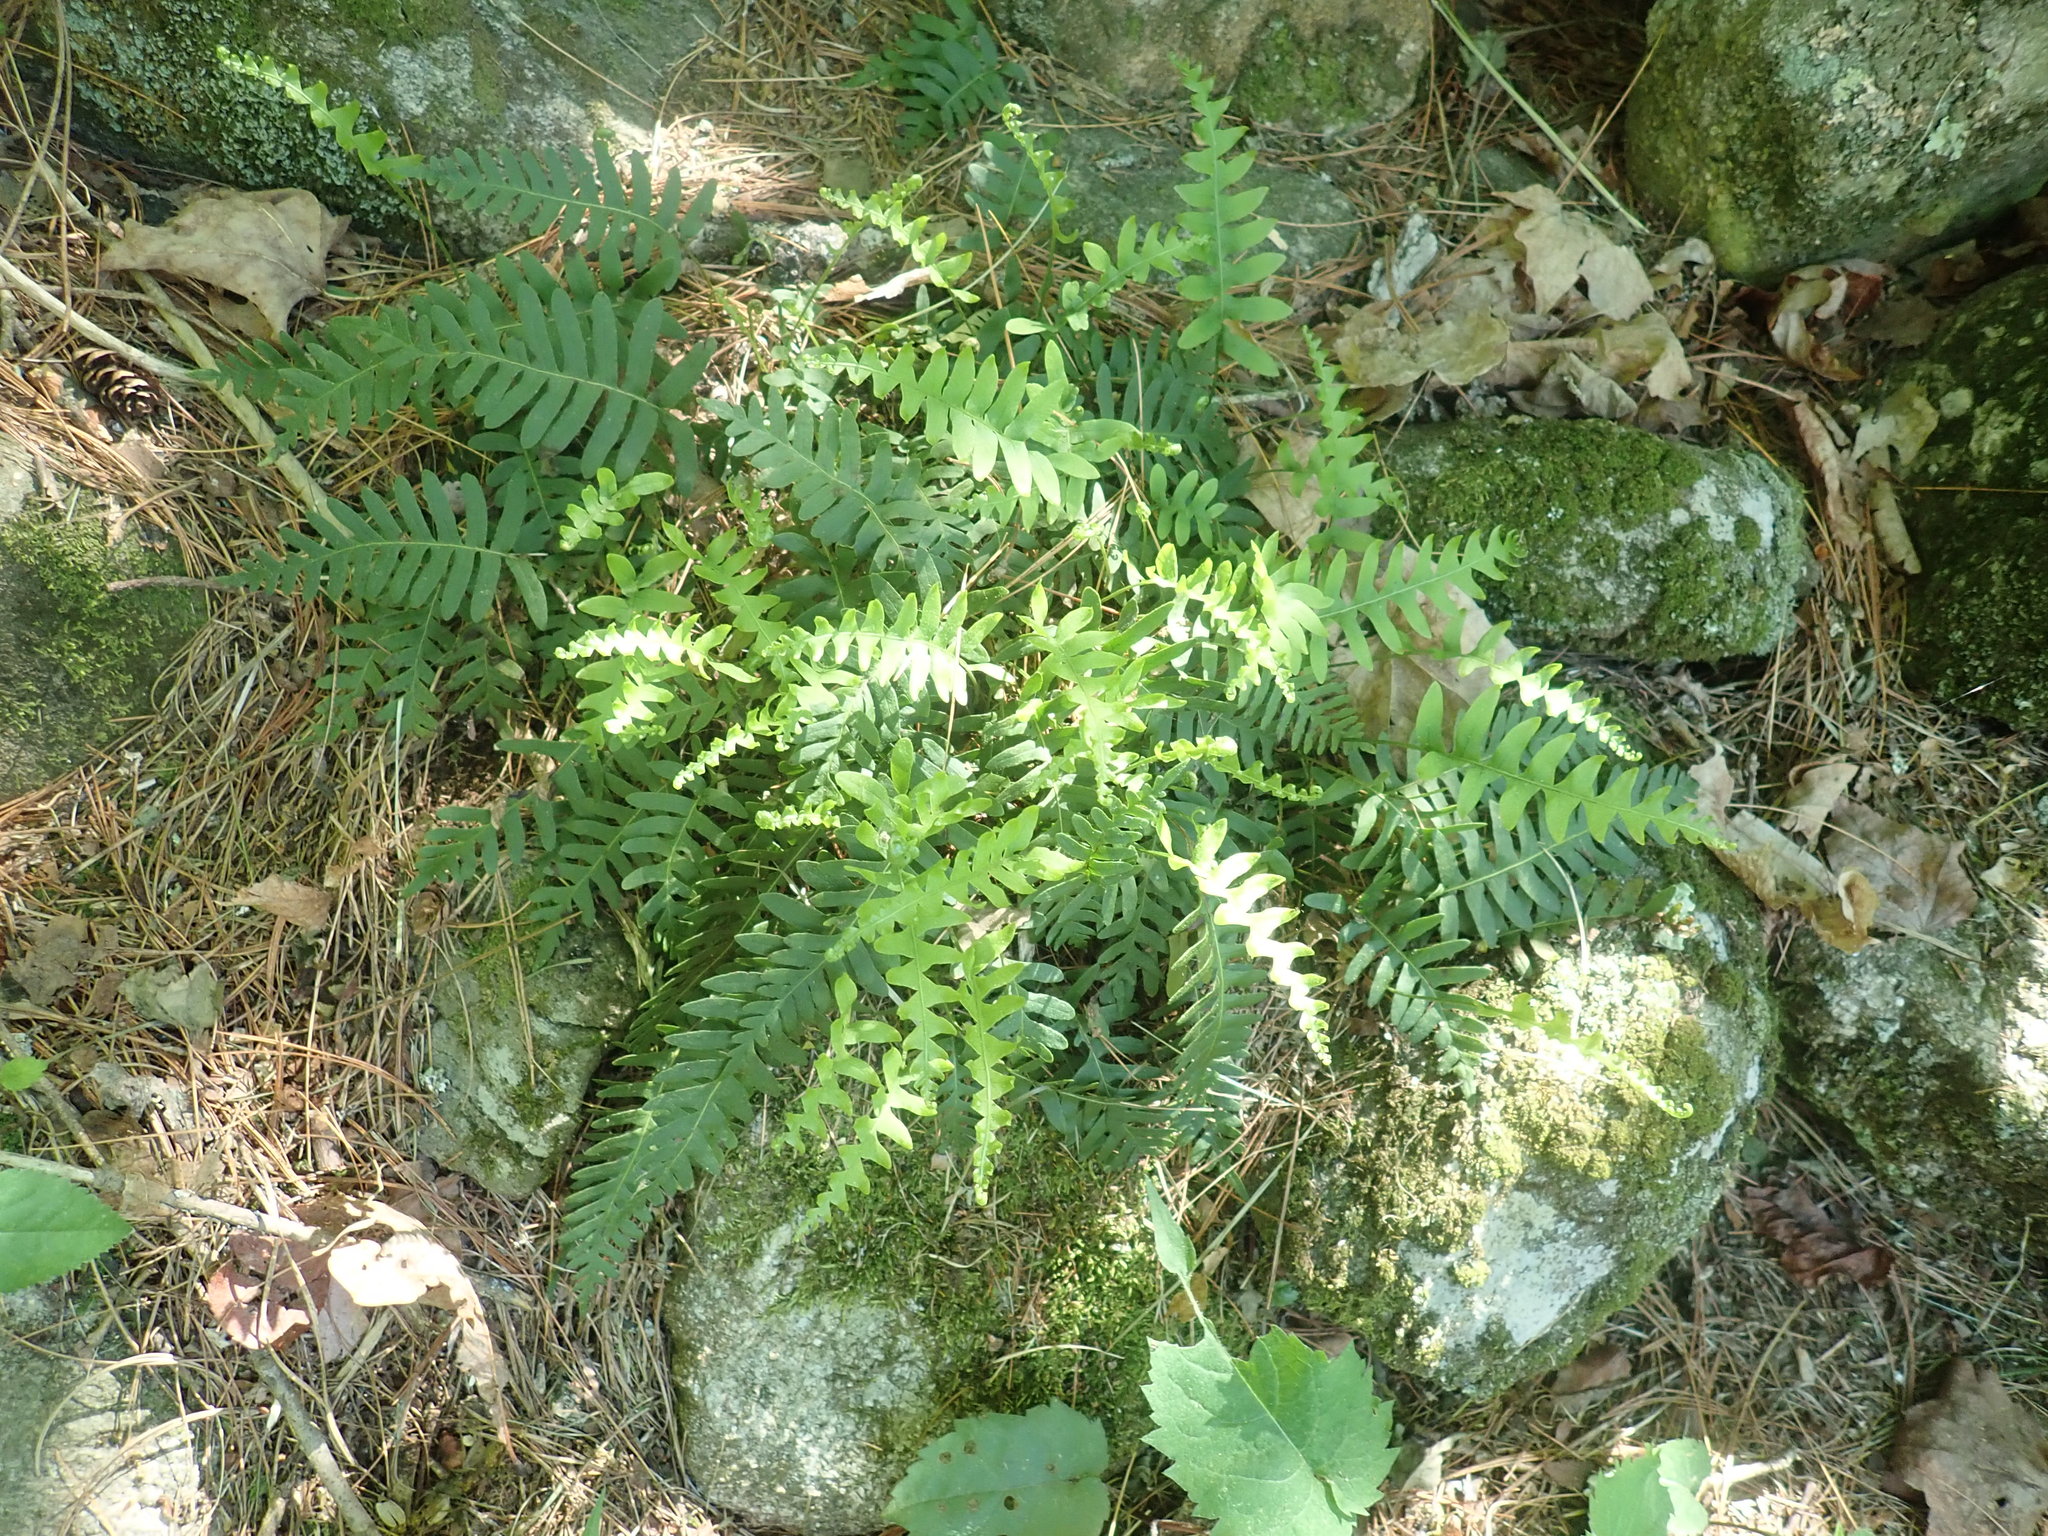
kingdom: Plantae
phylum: Tracheophyta
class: Polypodiopsida
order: Polypodiales
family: Polypodiaceae
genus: Polypodium
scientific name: Polypodium
